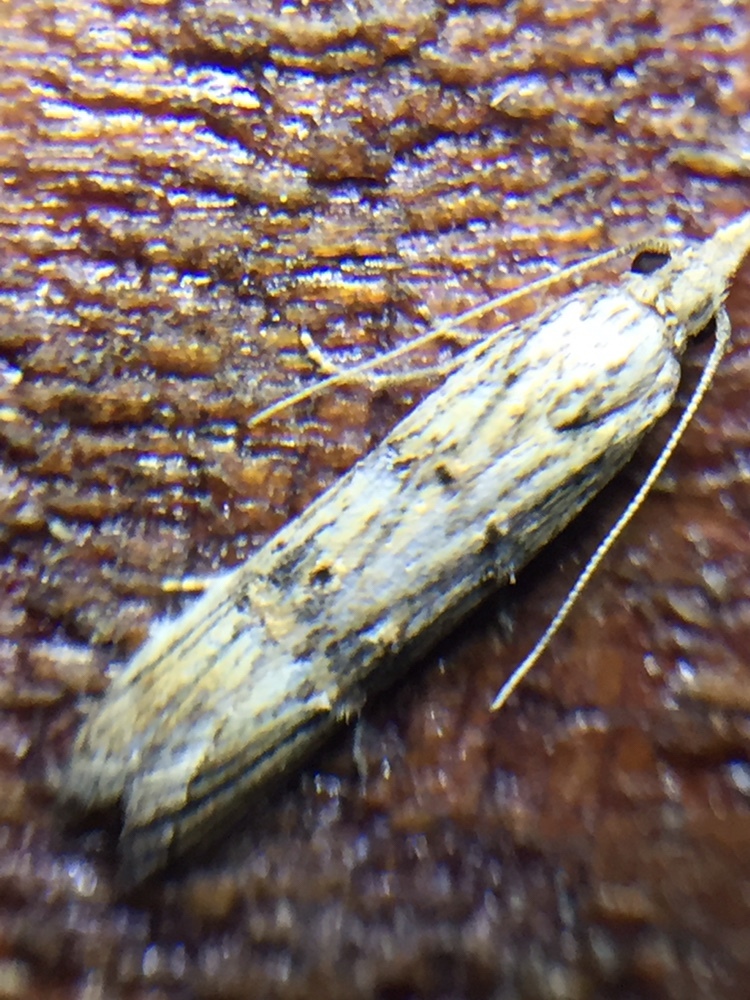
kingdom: Animalia
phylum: Arthropoda
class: Insecta
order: Lepidoptera
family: Carposinidae
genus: Carposina
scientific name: Carposina neurophorella
